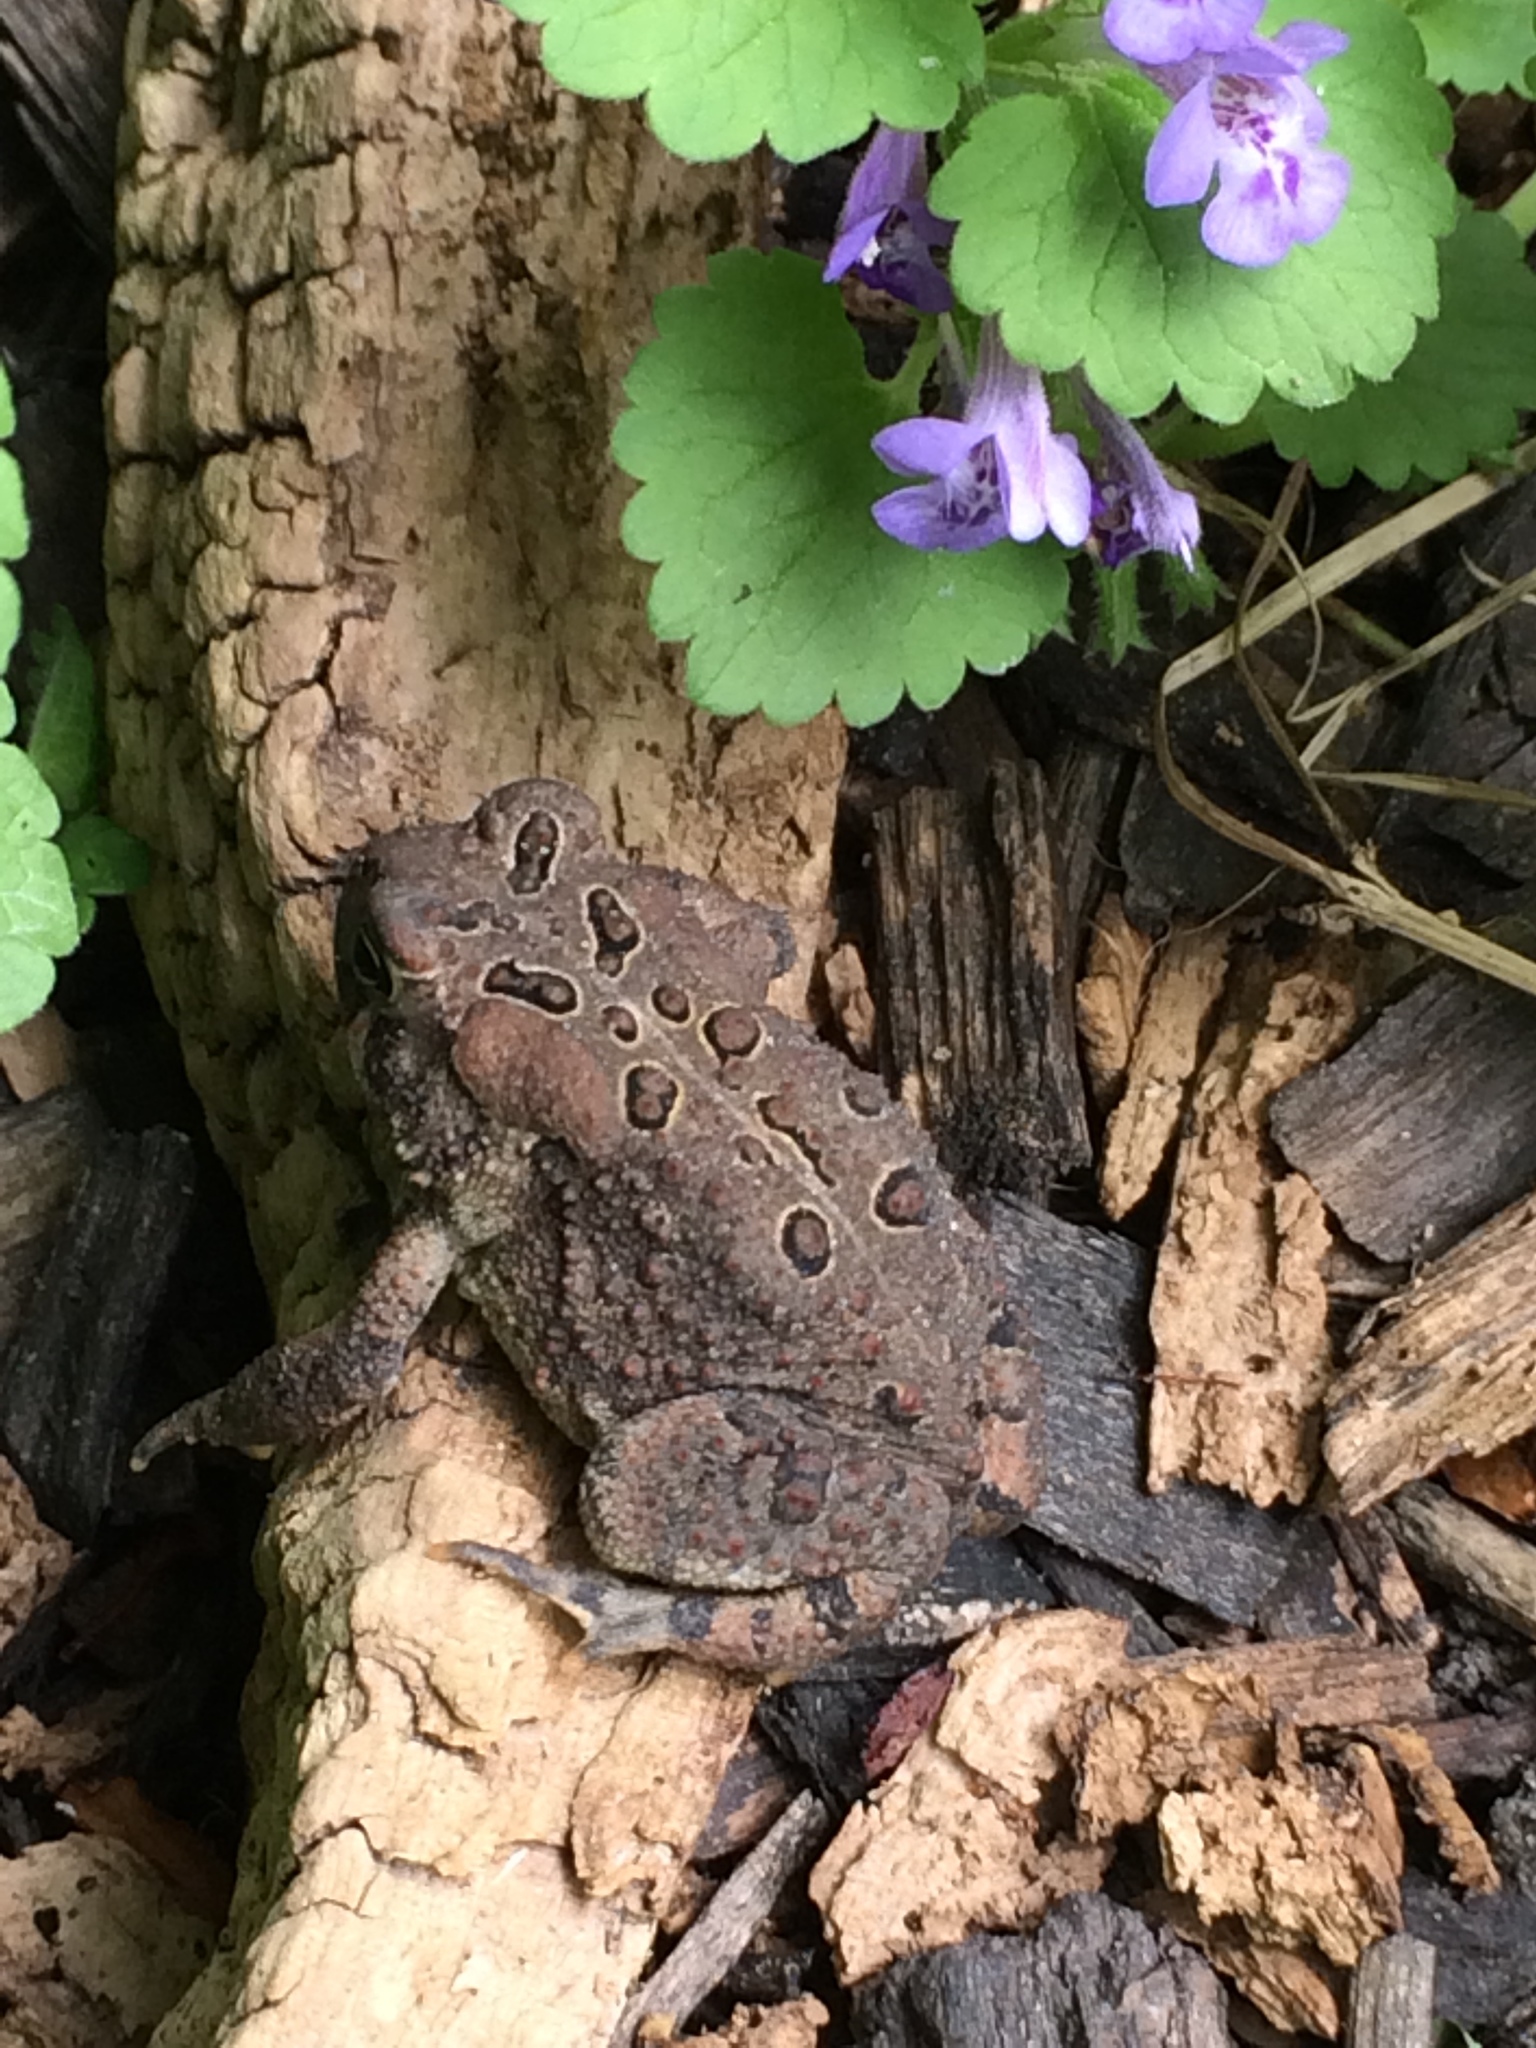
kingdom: Animalia
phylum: Chordata
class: Amphibia
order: Anura
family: Bufonidae
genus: Anaxyrus
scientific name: Anaxyrus americanus
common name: American toad
